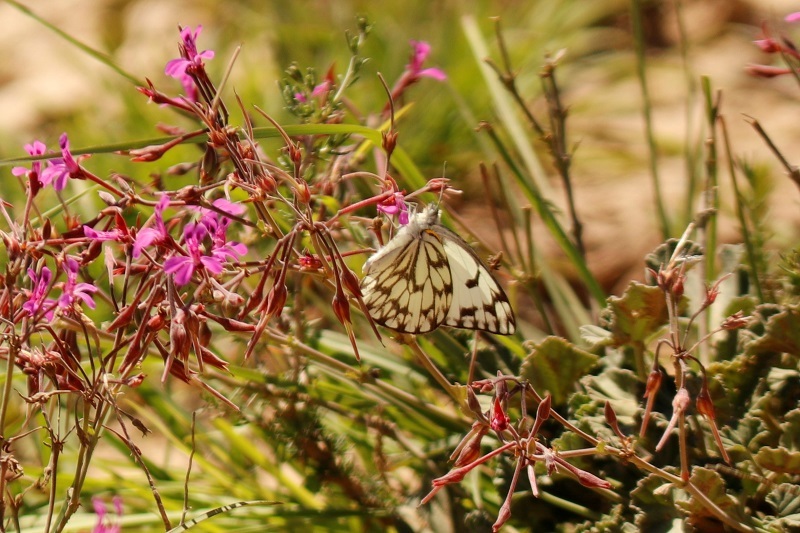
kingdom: Animalia
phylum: Arthropoda
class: Insecta
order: Lepidoptera
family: Pieridae
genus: Belenois
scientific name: Belenois gidica
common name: Pointed caper white
